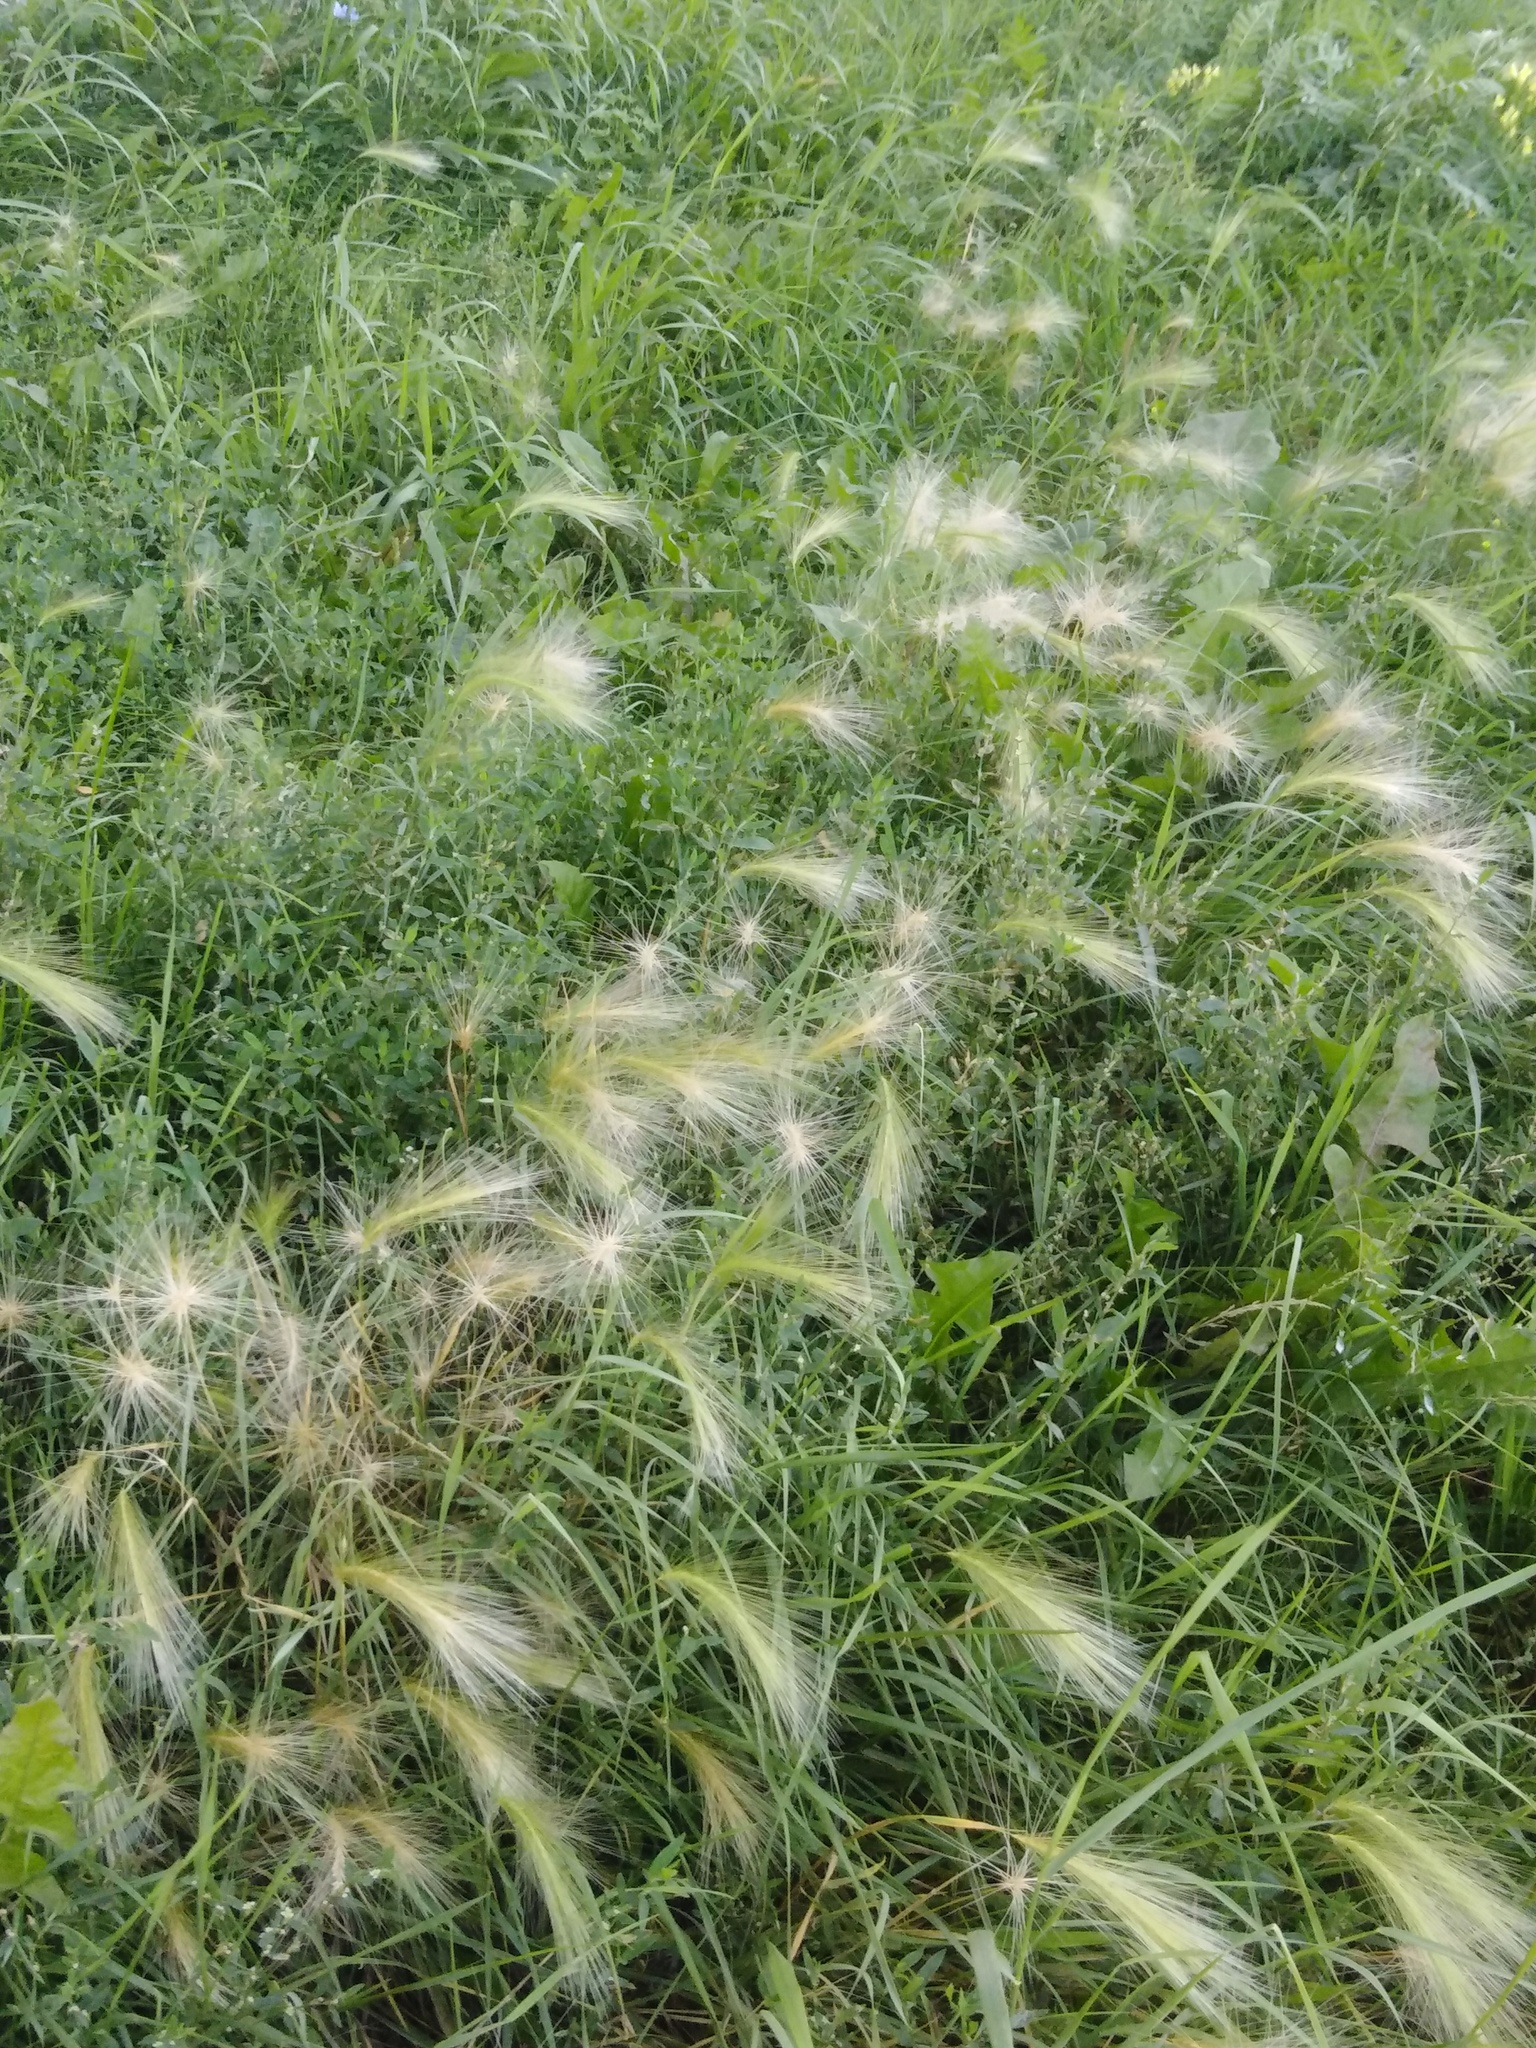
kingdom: Plantae
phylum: Tracheophyta
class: Liliopsida
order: Poales
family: Poaceae
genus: Hordeum
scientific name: Hordeum jubatum
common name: Foxtail barley
